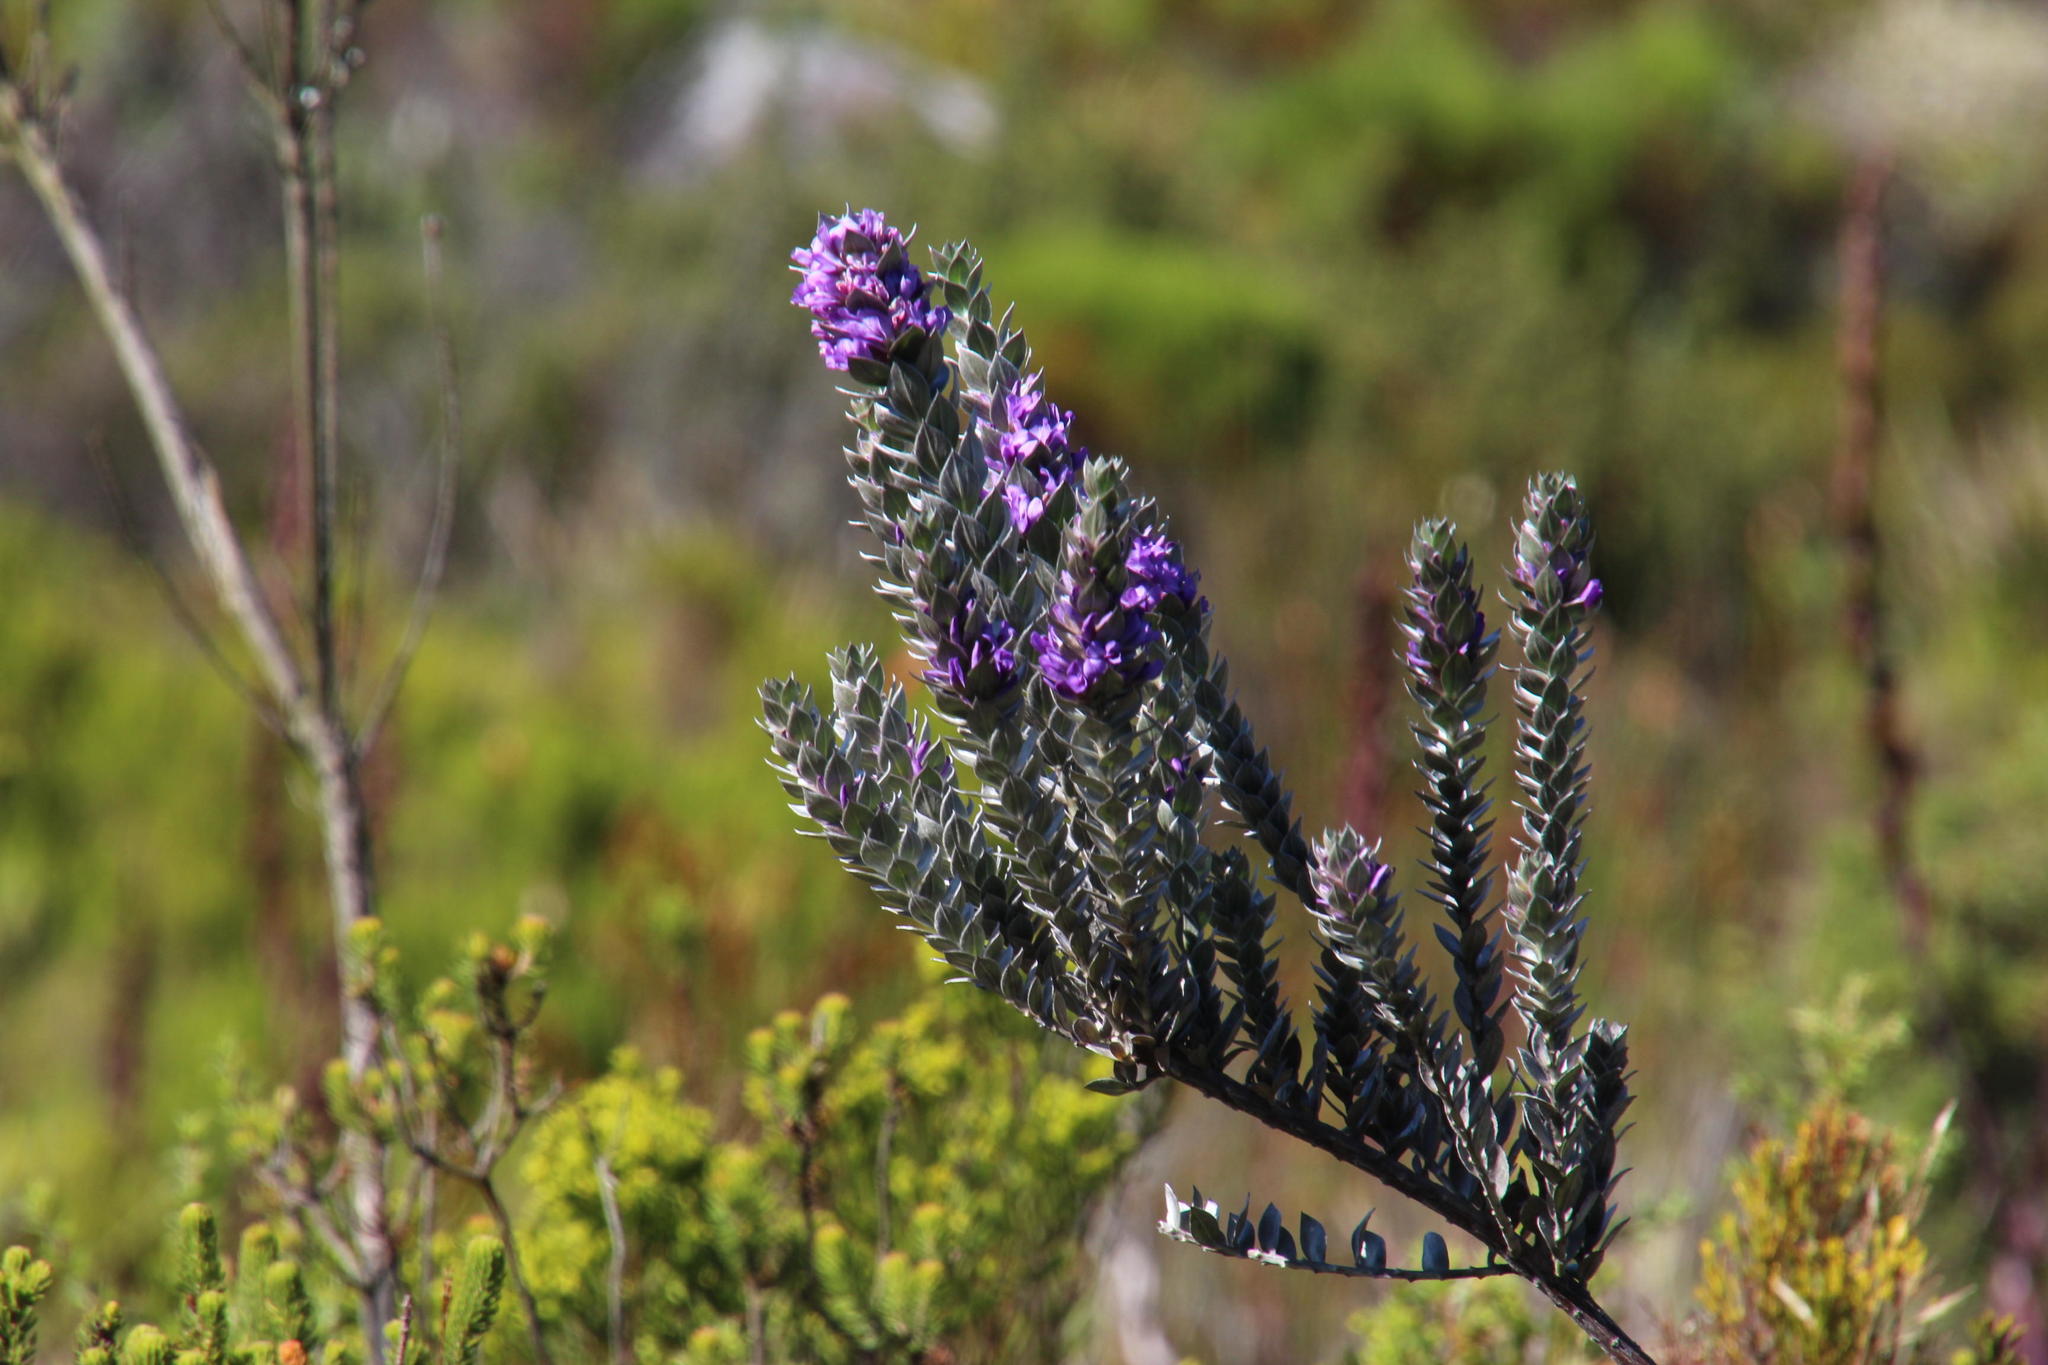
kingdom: Plantae
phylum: Tracheophyta
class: Magnoliopsida
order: Fabales
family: Fabaceae
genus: Amphithalea
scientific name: Amphithalea imbricata
